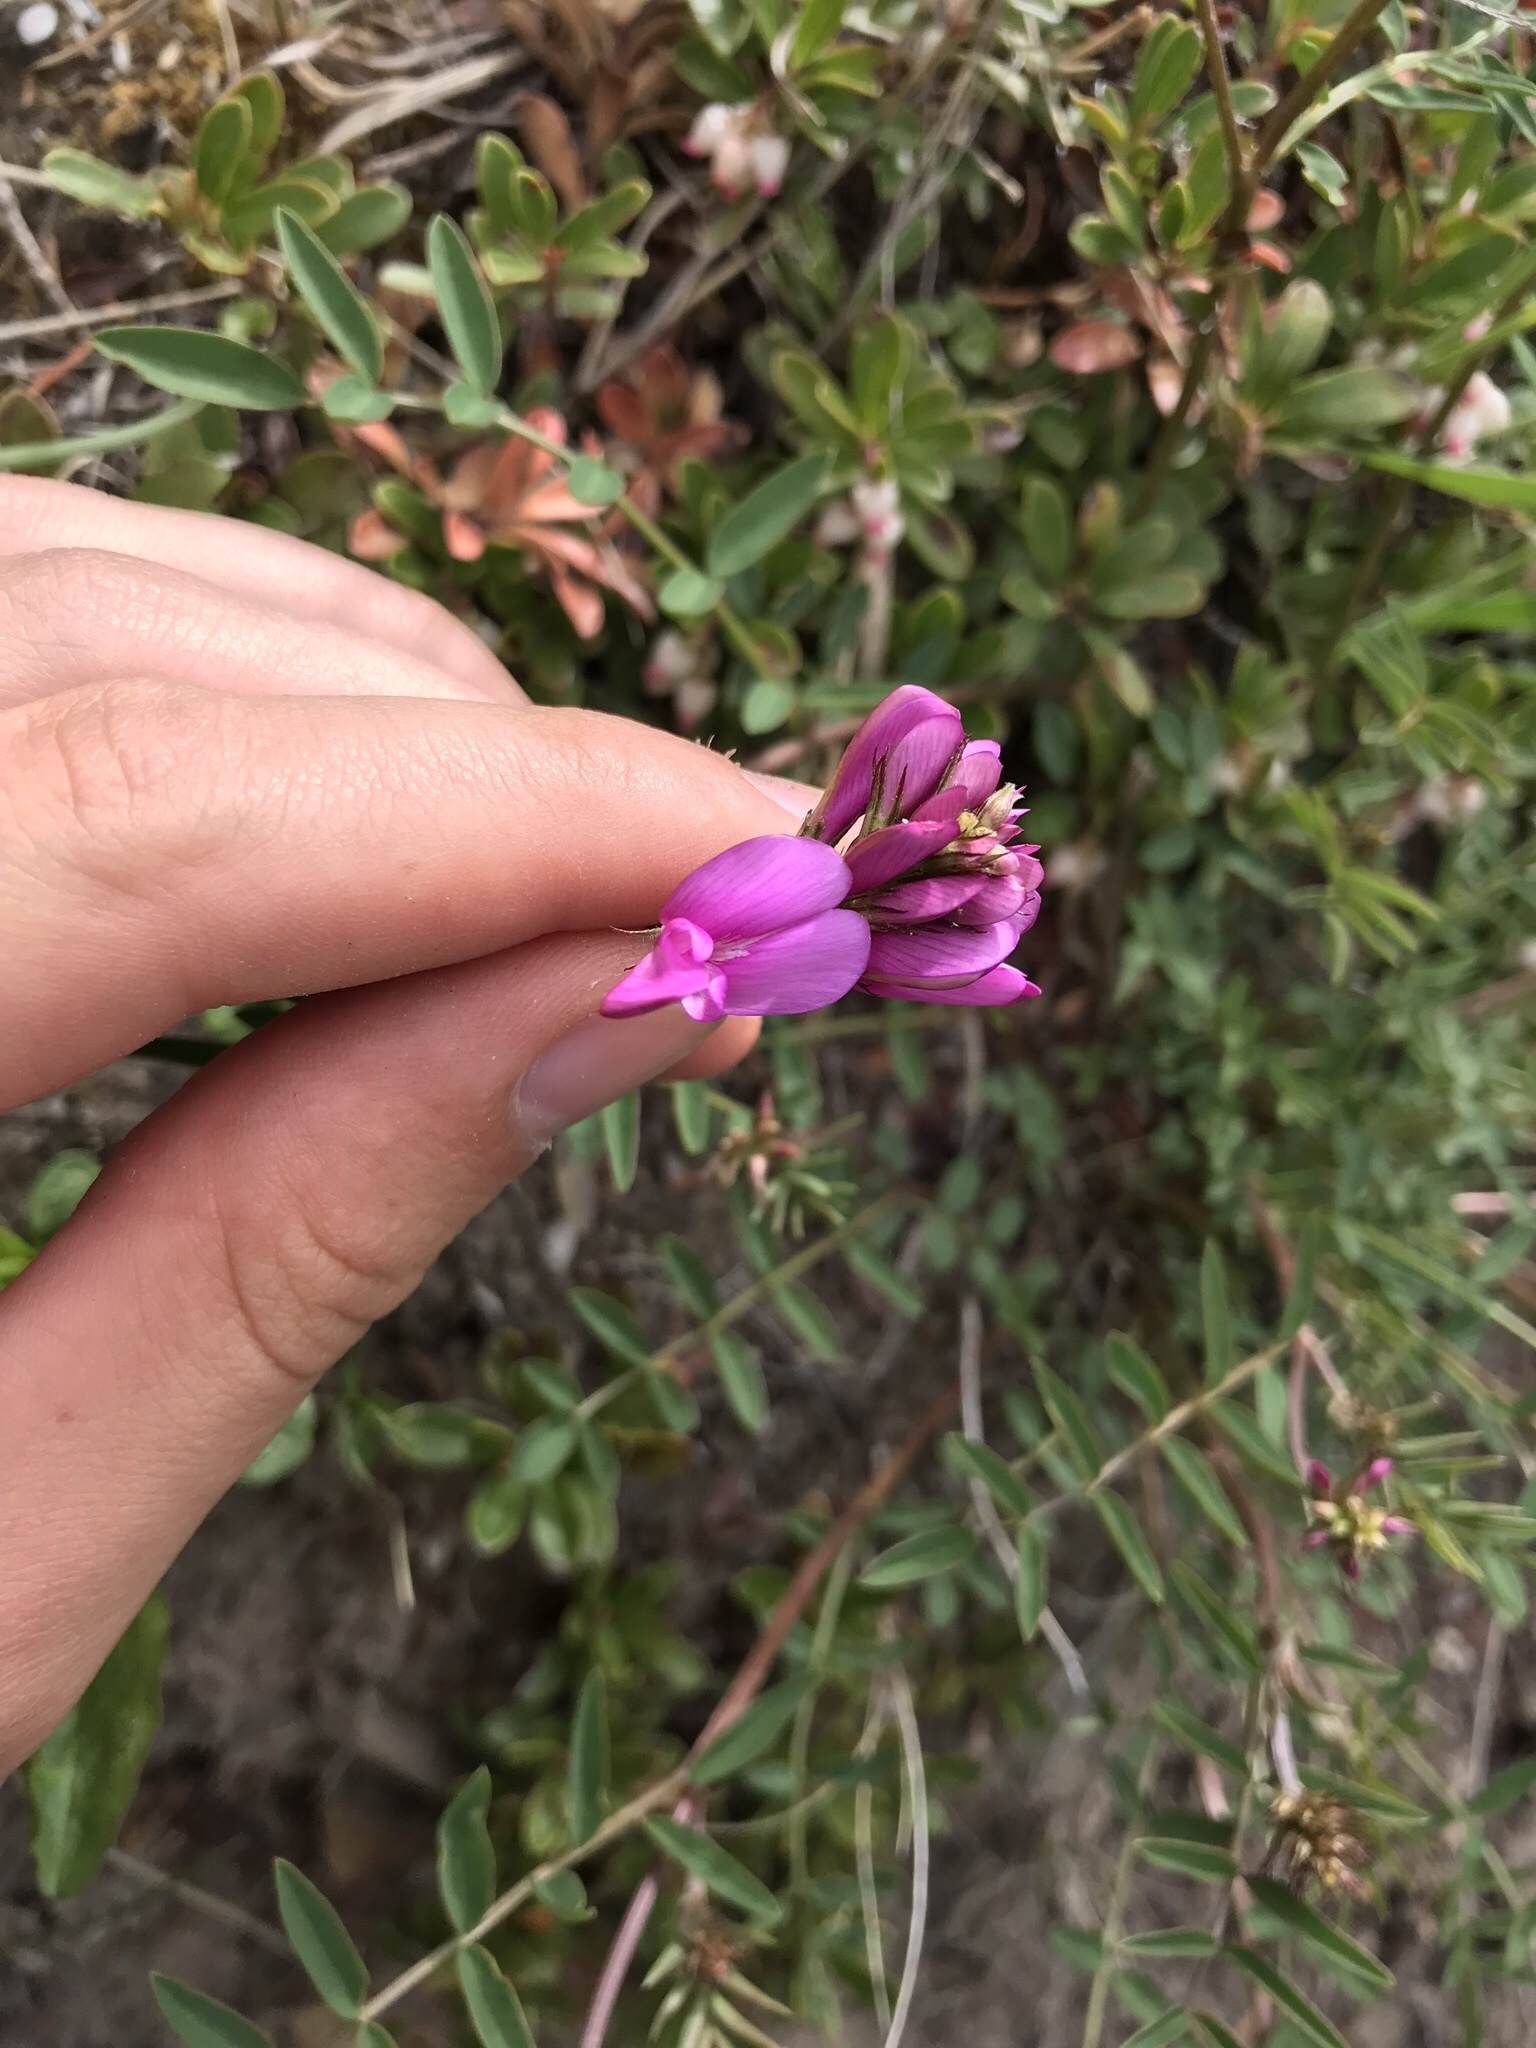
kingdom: Plantae
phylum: Tracheophyta
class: Magnoliopsida
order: Fabales
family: Fabaceae
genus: Hedysarum
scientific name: Hedysarum boreale
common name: Northern sweet-vetch
